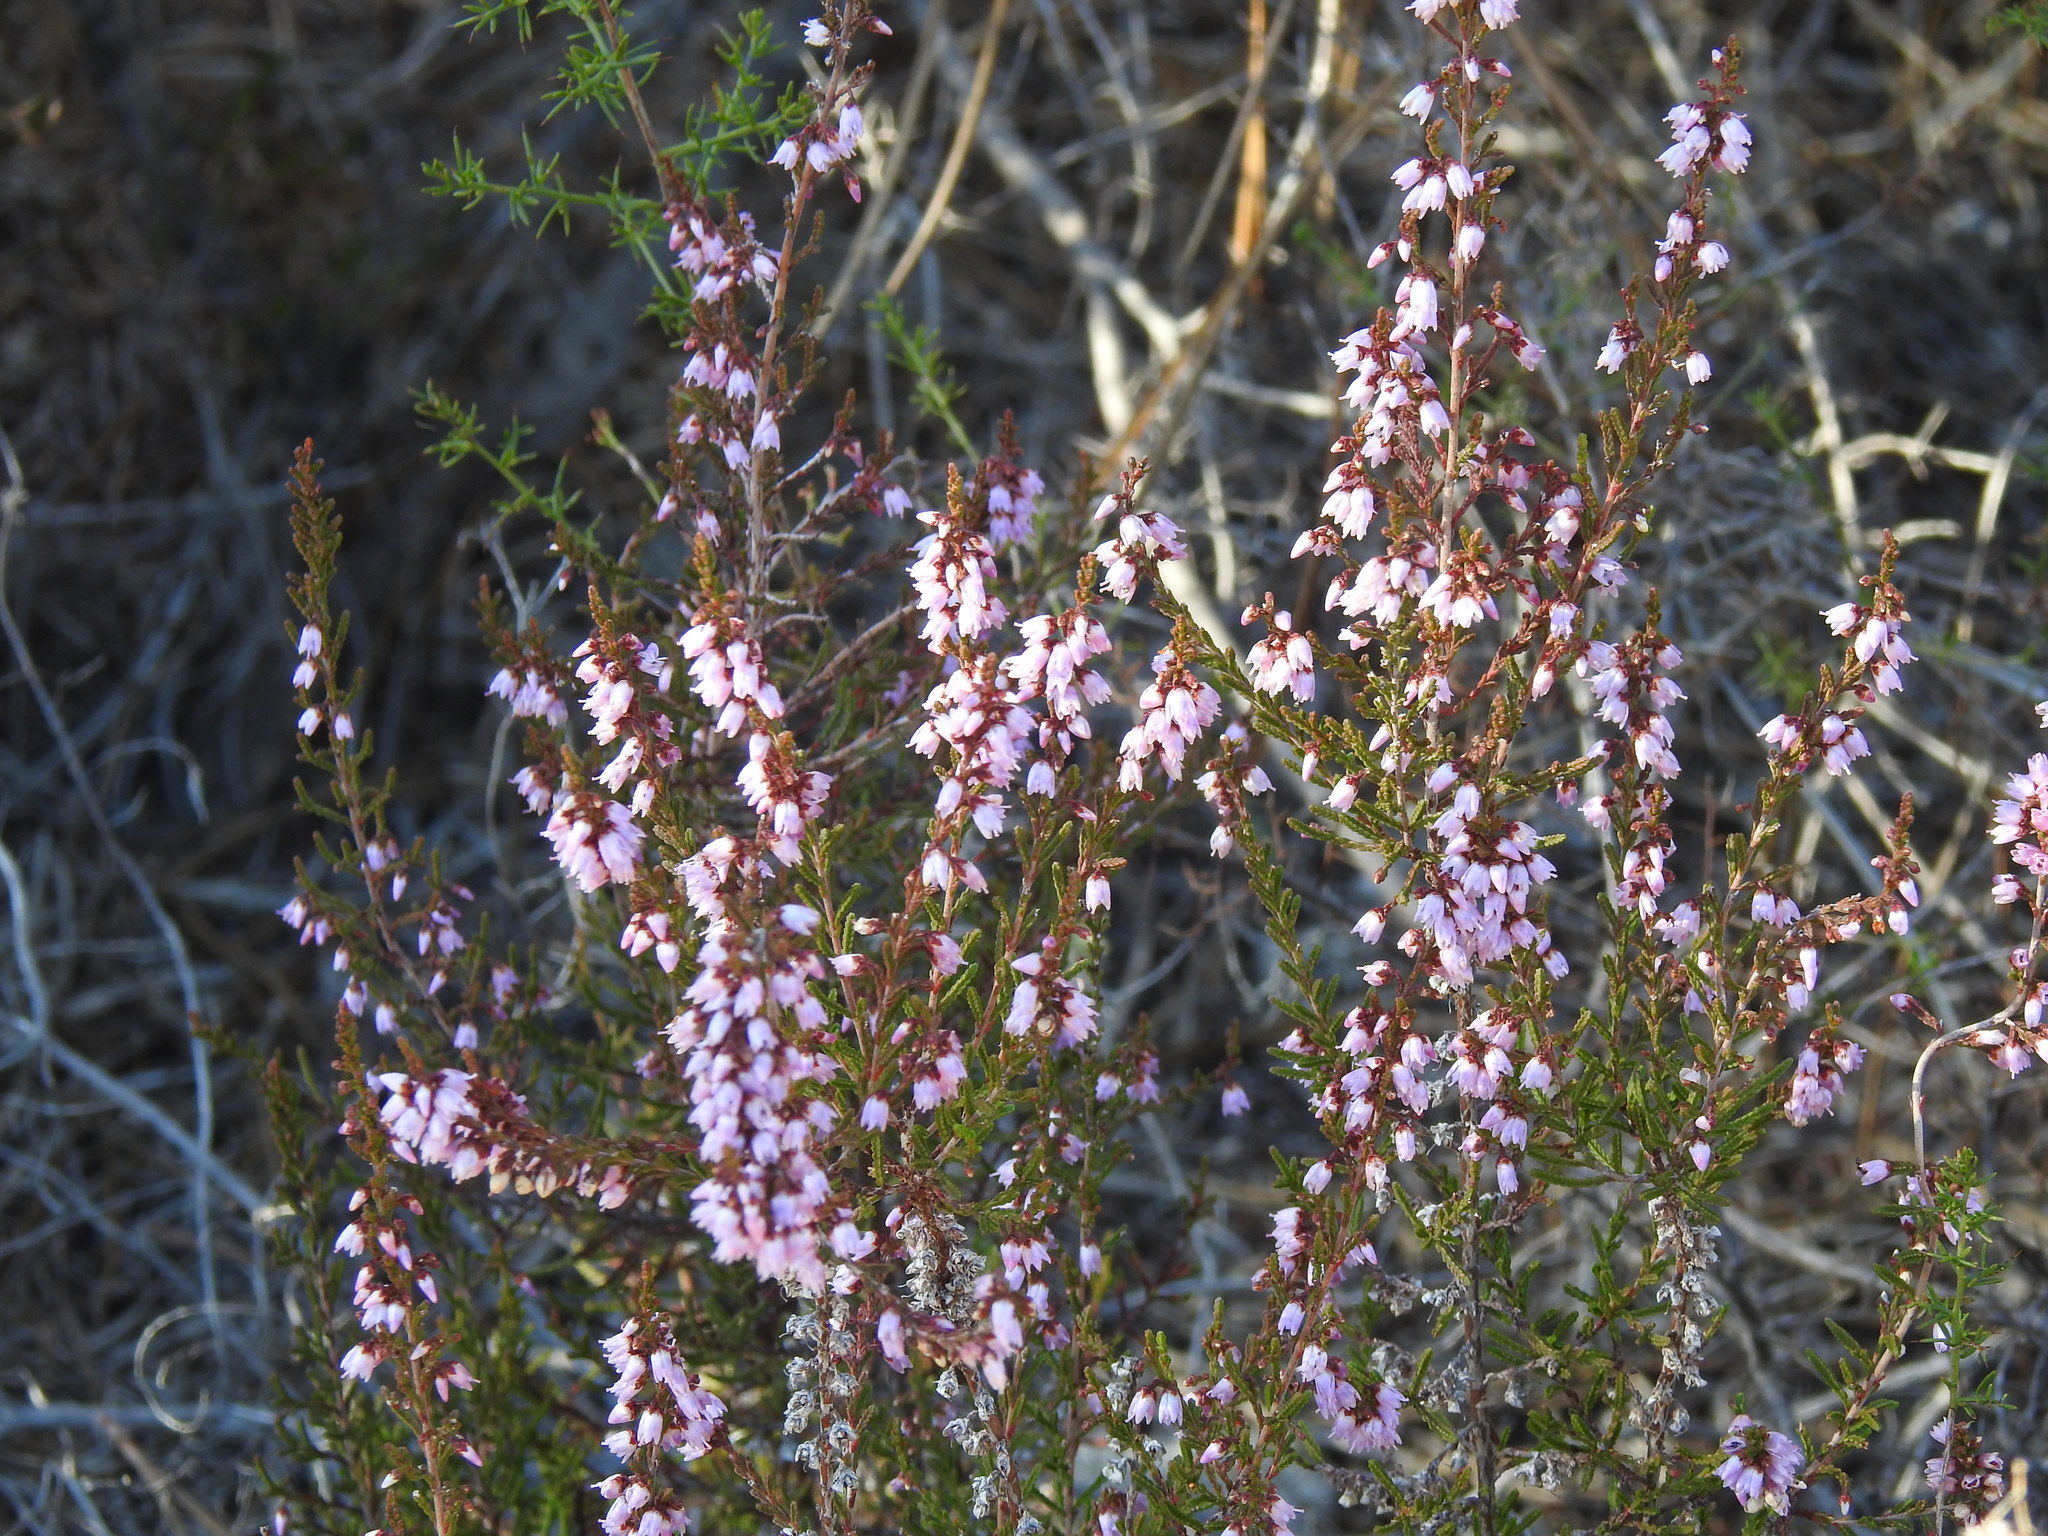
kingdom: Plantae
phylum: Tracheophyta
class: Magnoliopsida
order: Ericales
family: Ericaceae
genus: Calluna
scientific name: Calluna vulgaris
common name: Heather
